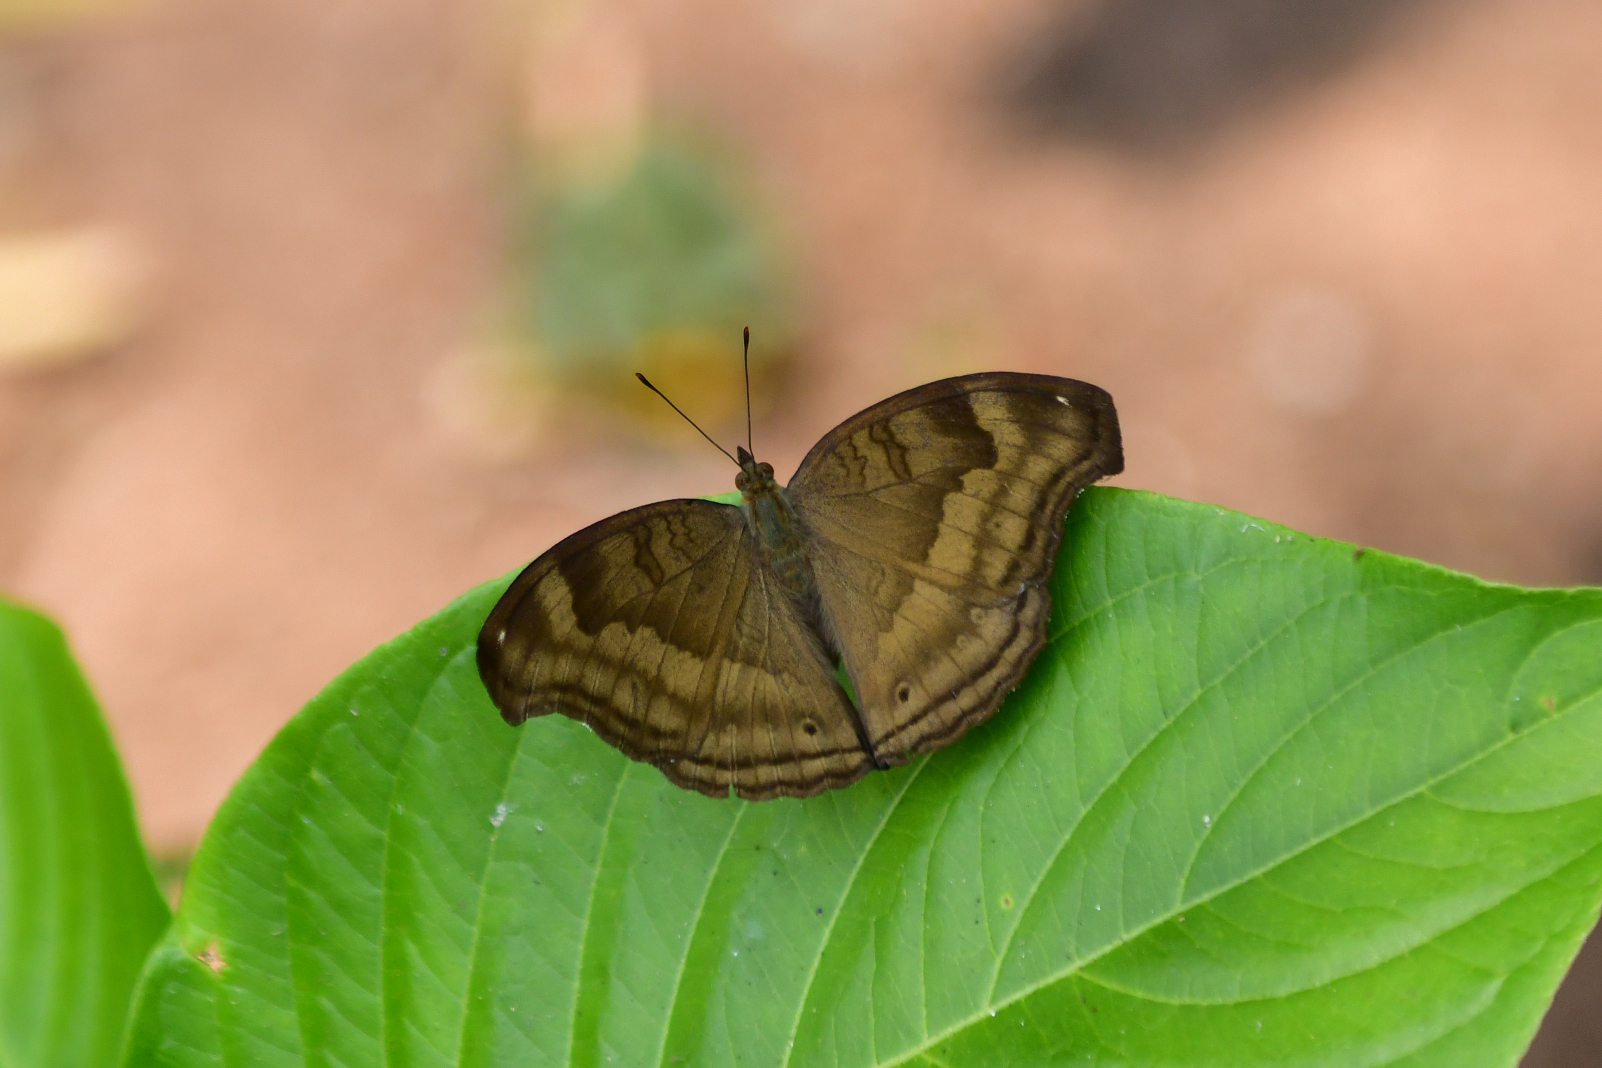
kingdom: Animalia
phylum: Arthropoda
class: Insecta
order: Lepidoptera
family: Nymphalidae
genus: Junonia
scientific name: Junonia iphita
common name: Chocolate pansy
